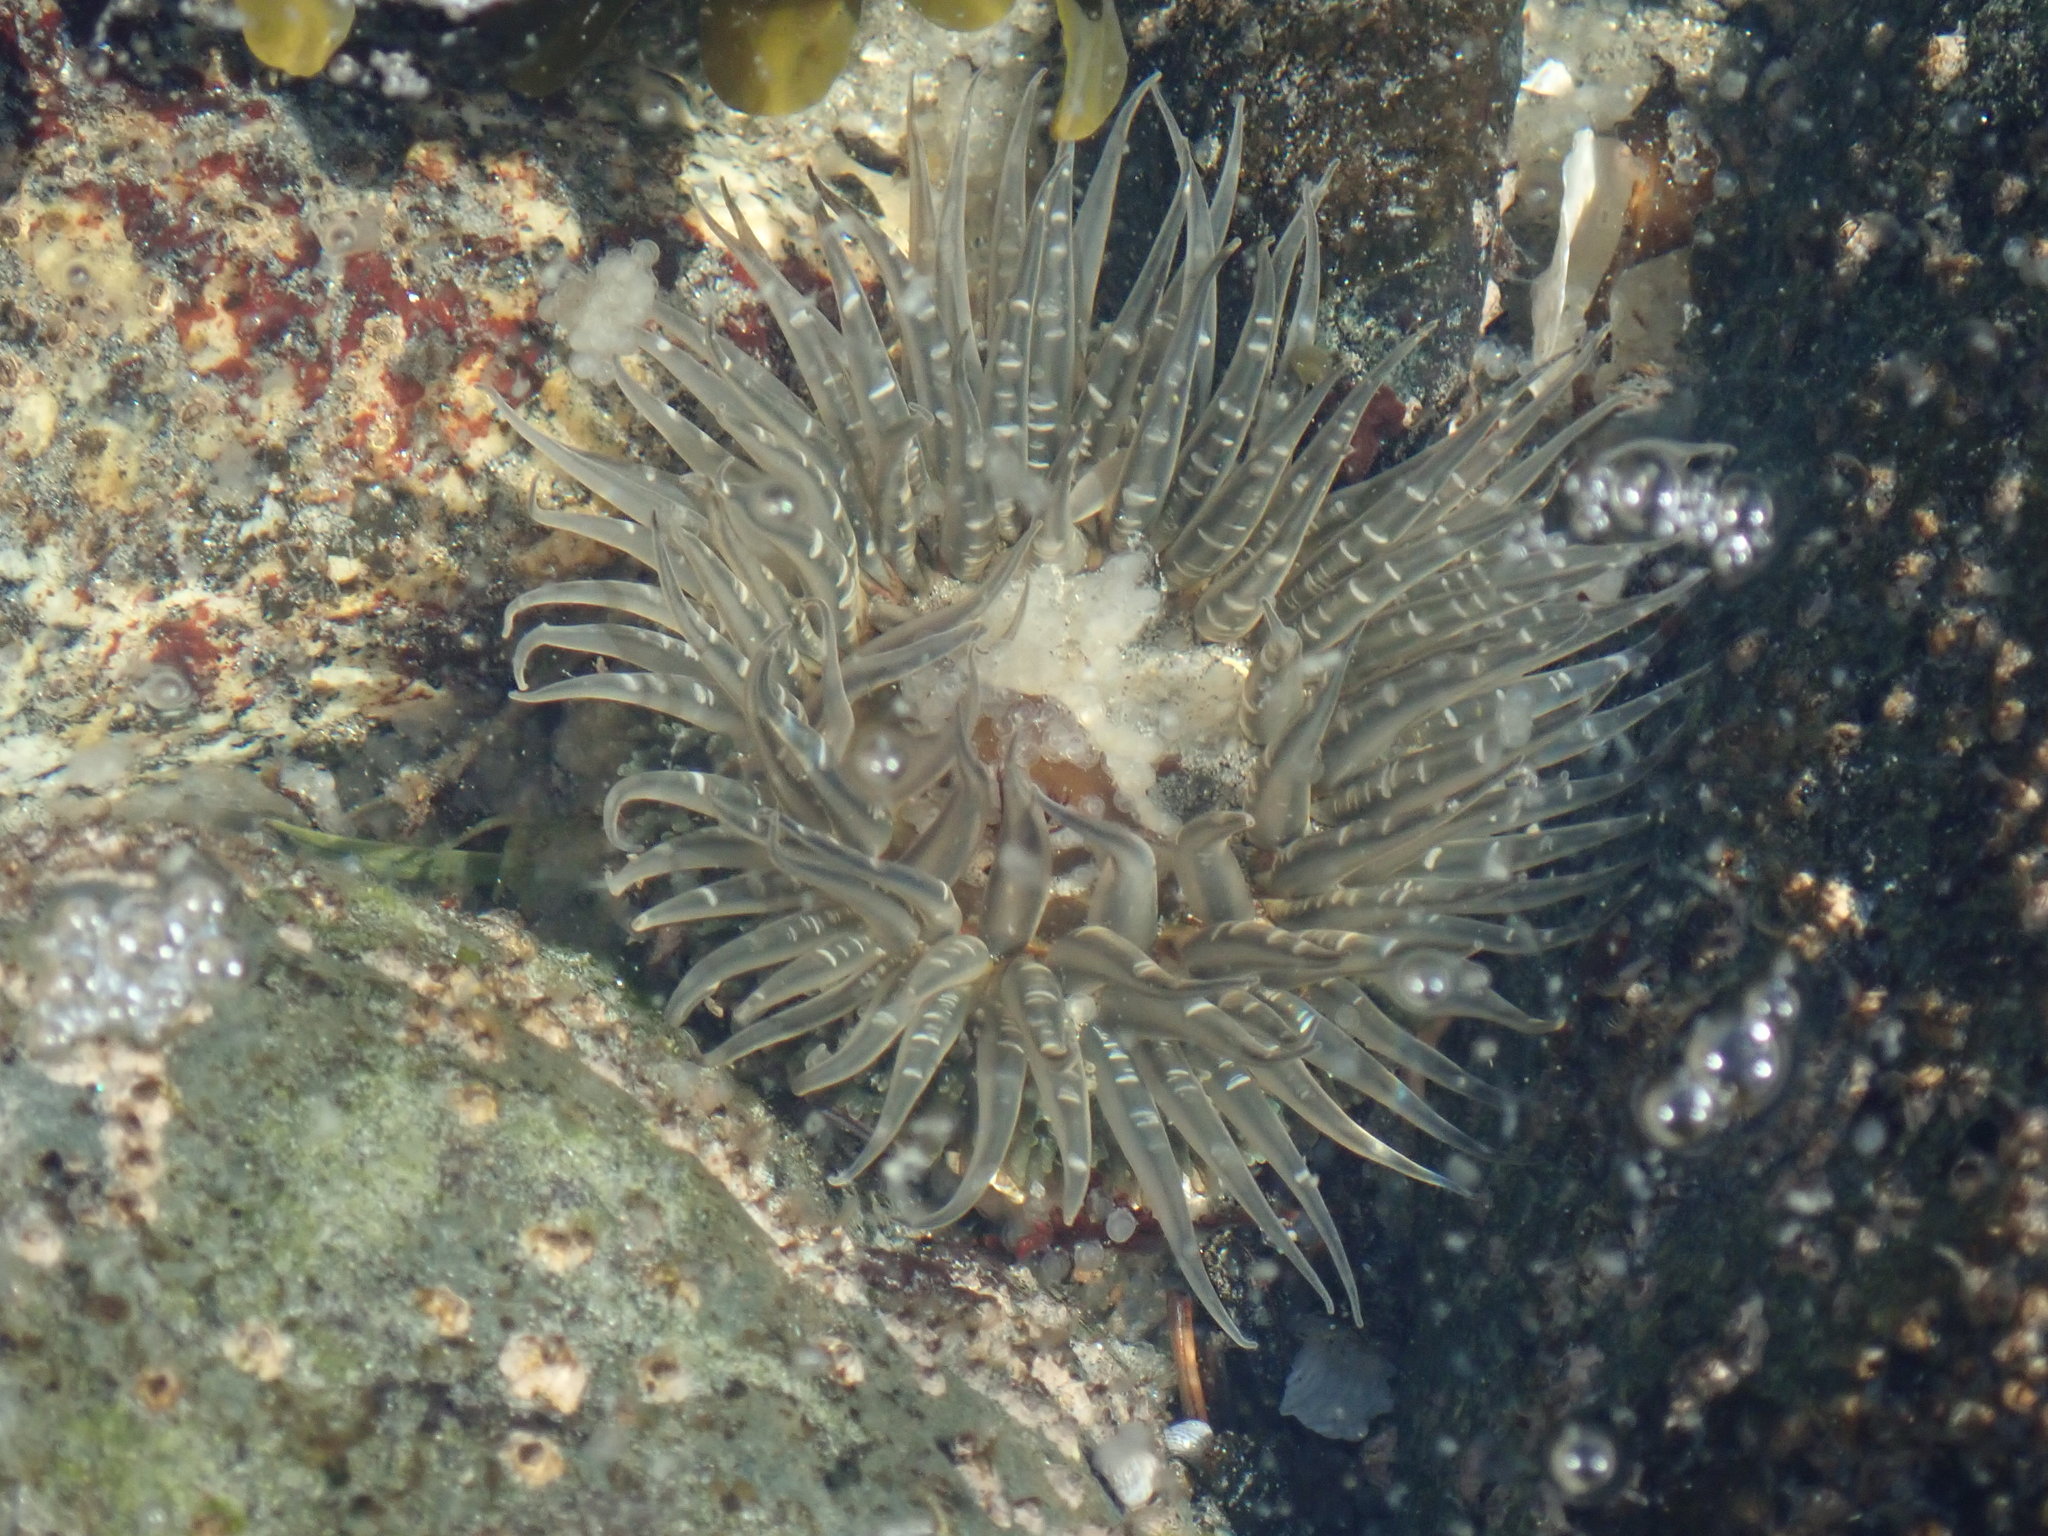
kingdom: Animalia
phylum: Cnidaria
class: Anthozoa
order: Actiniaria
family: Actiniidae
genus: Anthopleura
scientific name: Anthopleura artemisia
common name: Buried sea anemone
